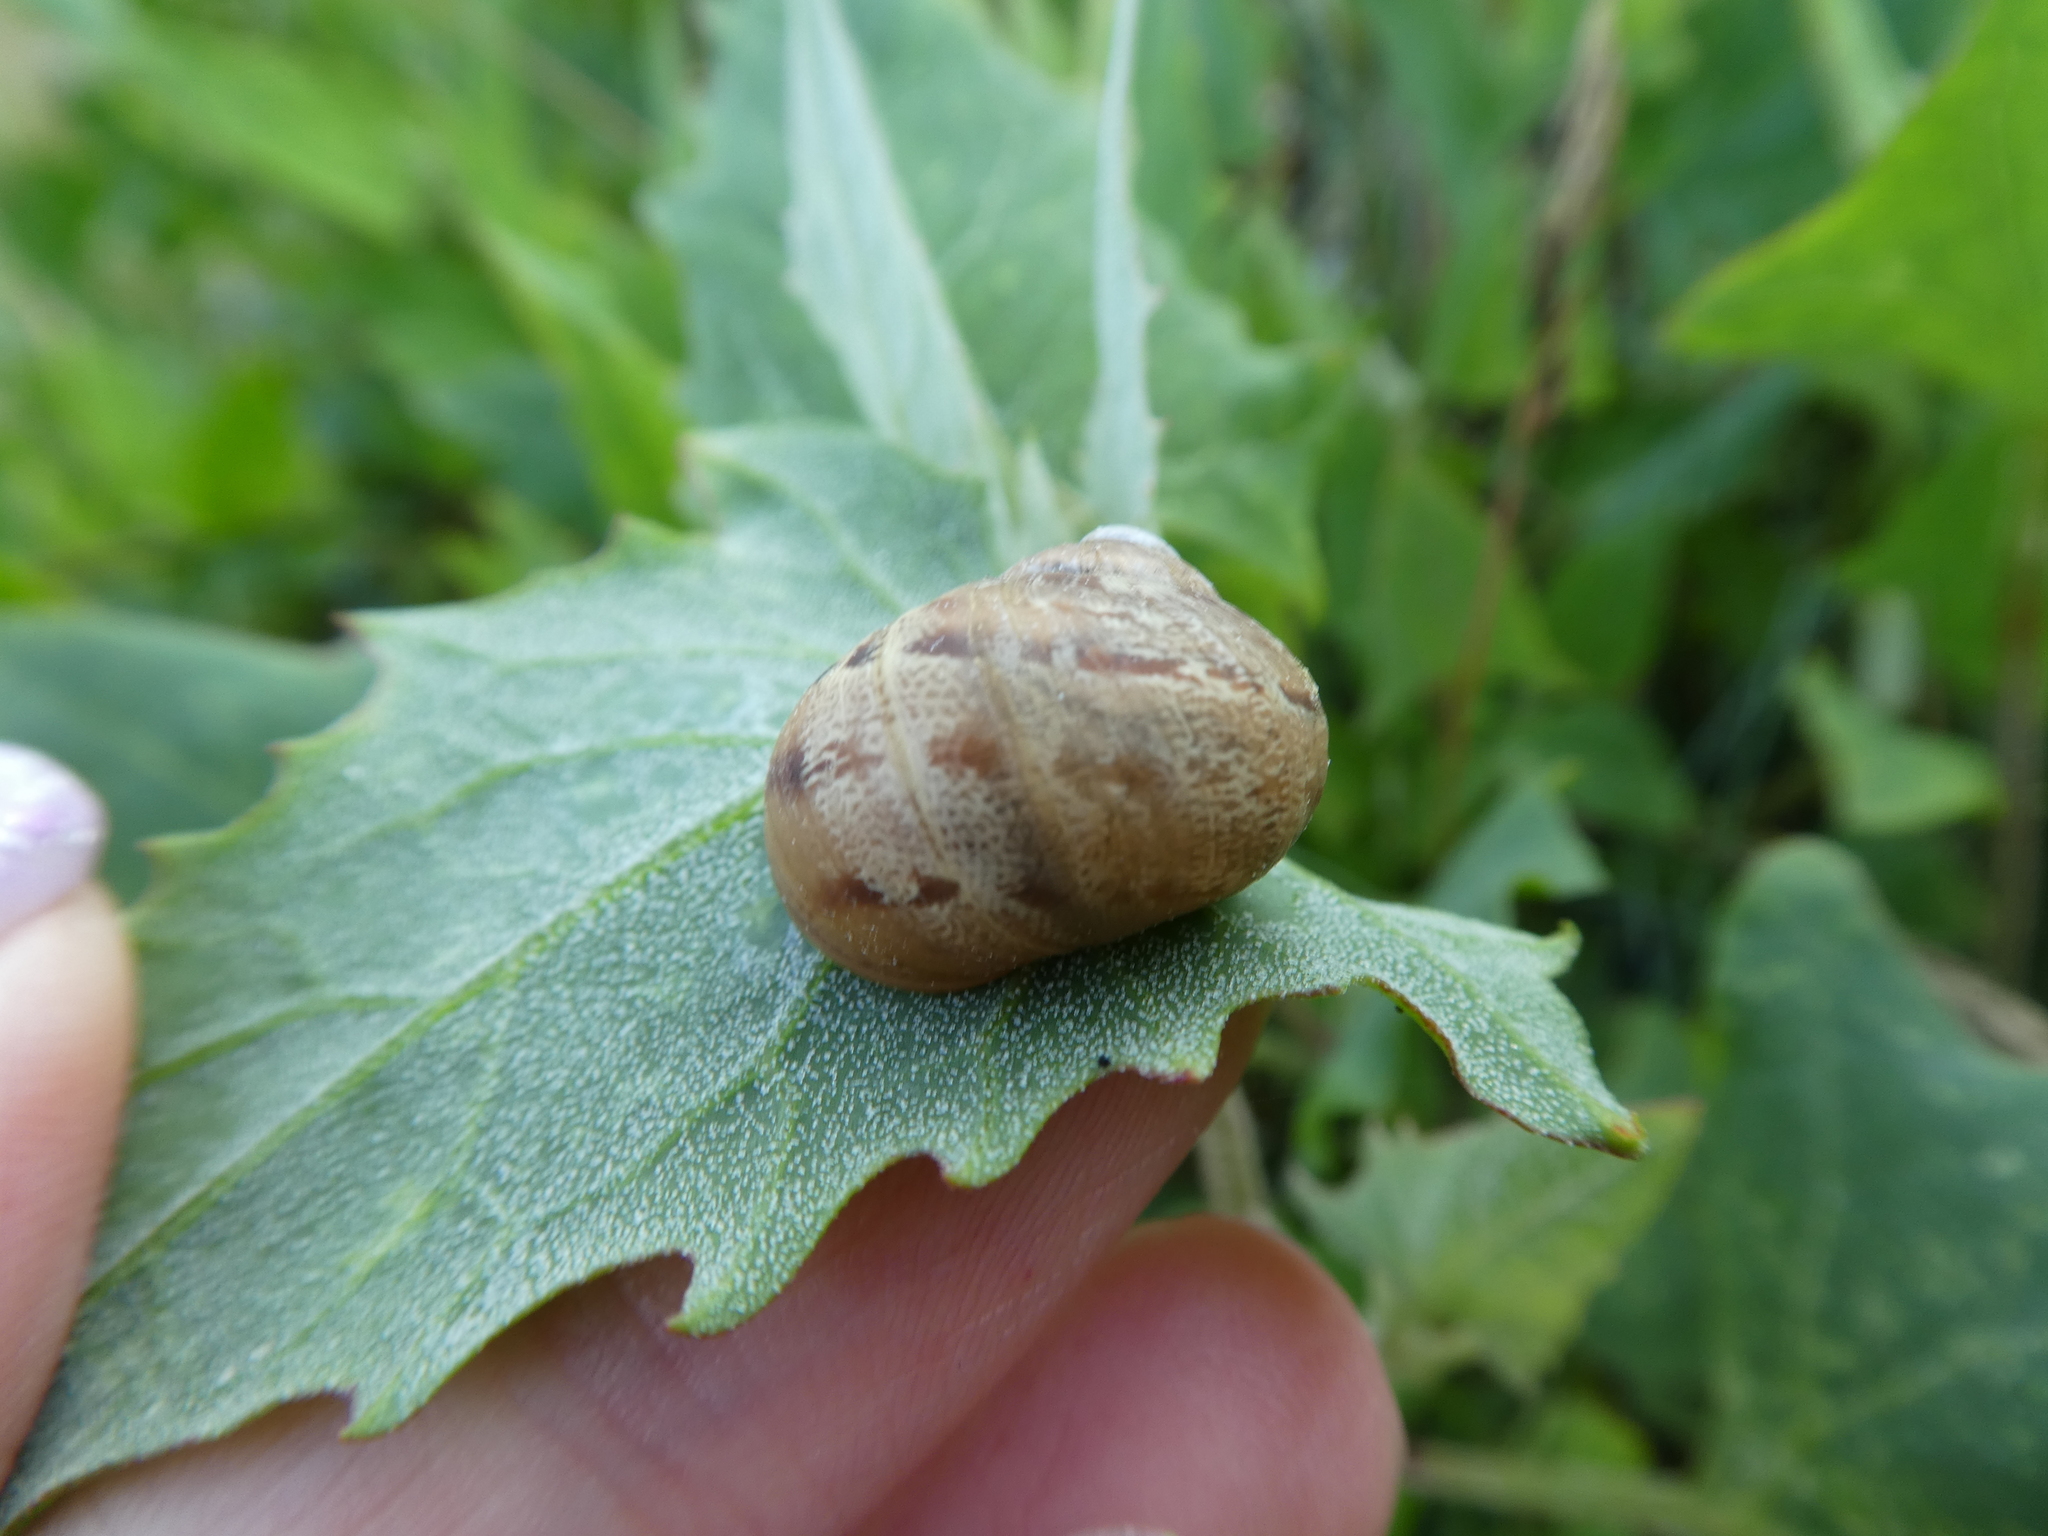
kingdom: Animalia
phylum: Mollusca
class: Gastropoda
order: Stylommatophora
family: Helicidae
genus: Cornu
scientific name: Cornu aspersum
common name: Brown garden snail
